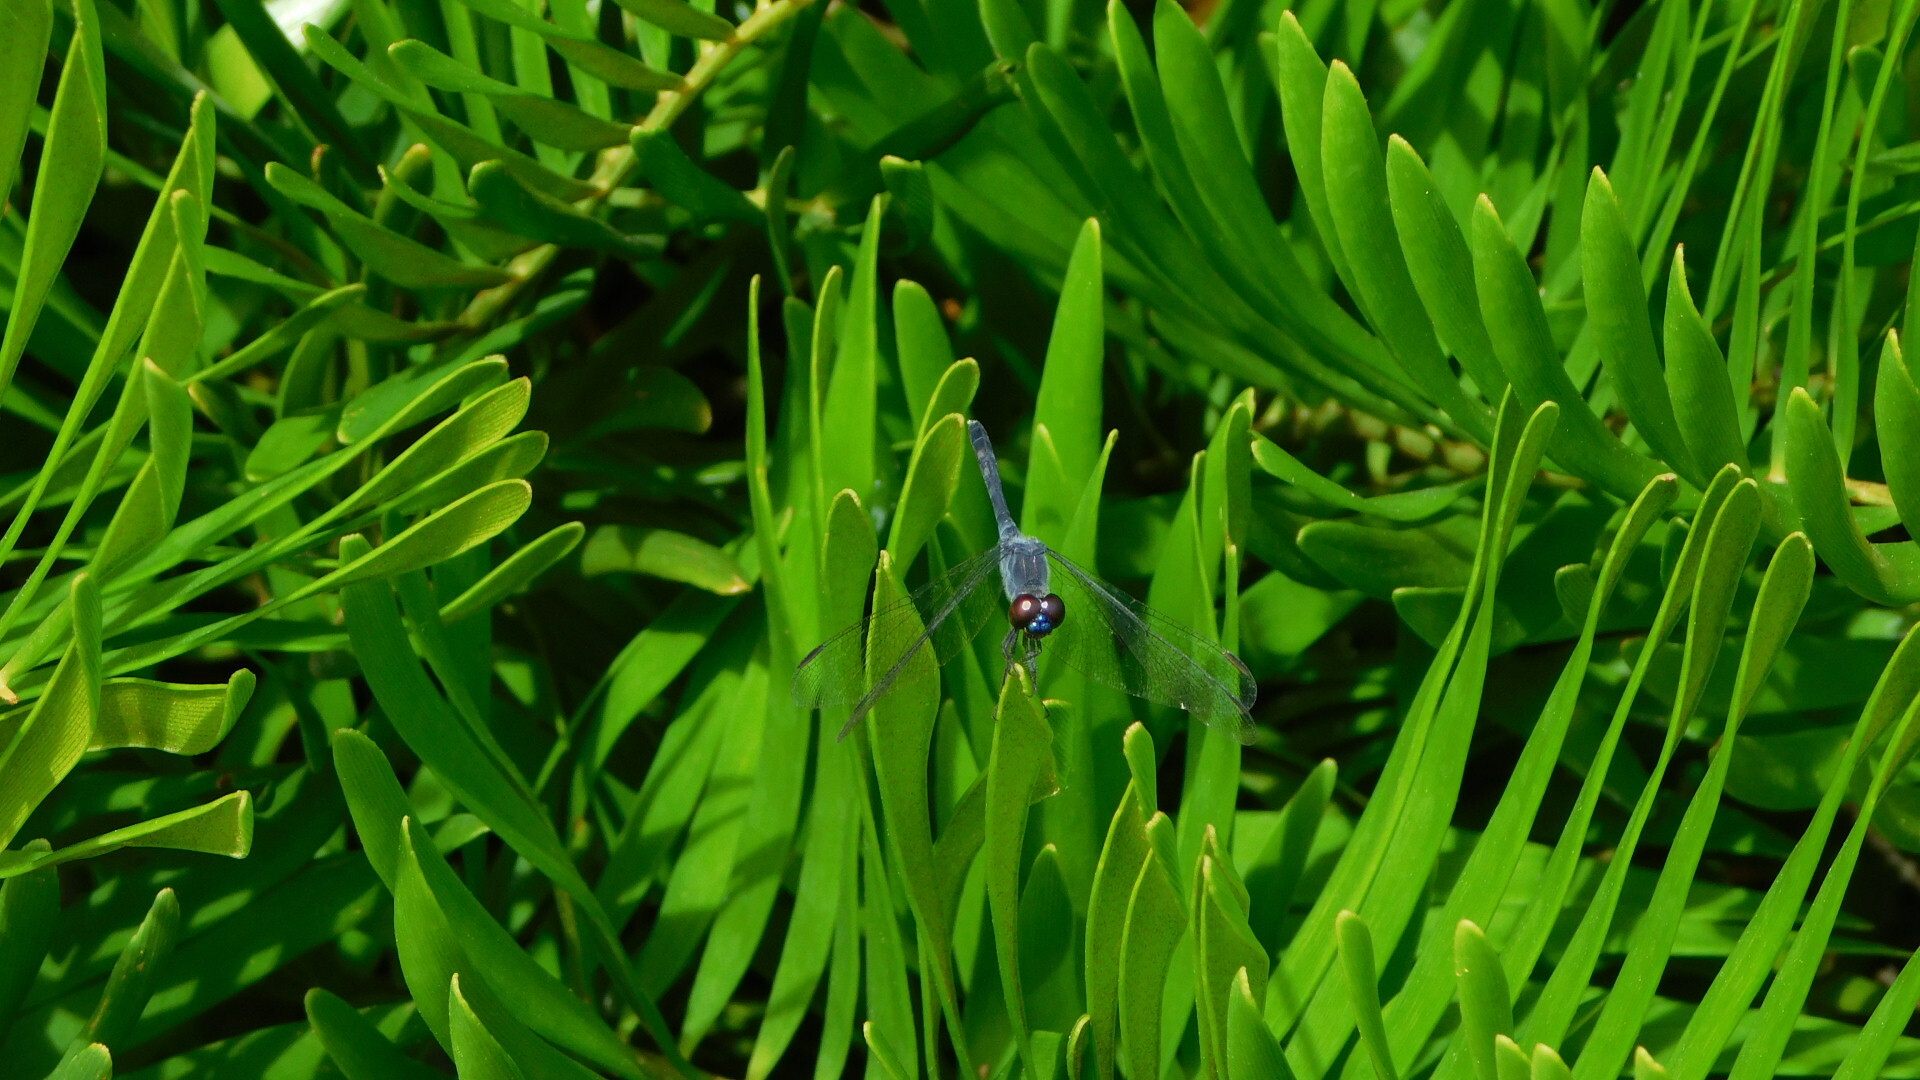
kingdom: Animalia
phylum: Arthropoda
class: Insecta
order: Odonata
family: Libellulidae
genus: Erythrodiplax
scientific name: Erythrodiplax berenice
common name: Seaside dragonlet
